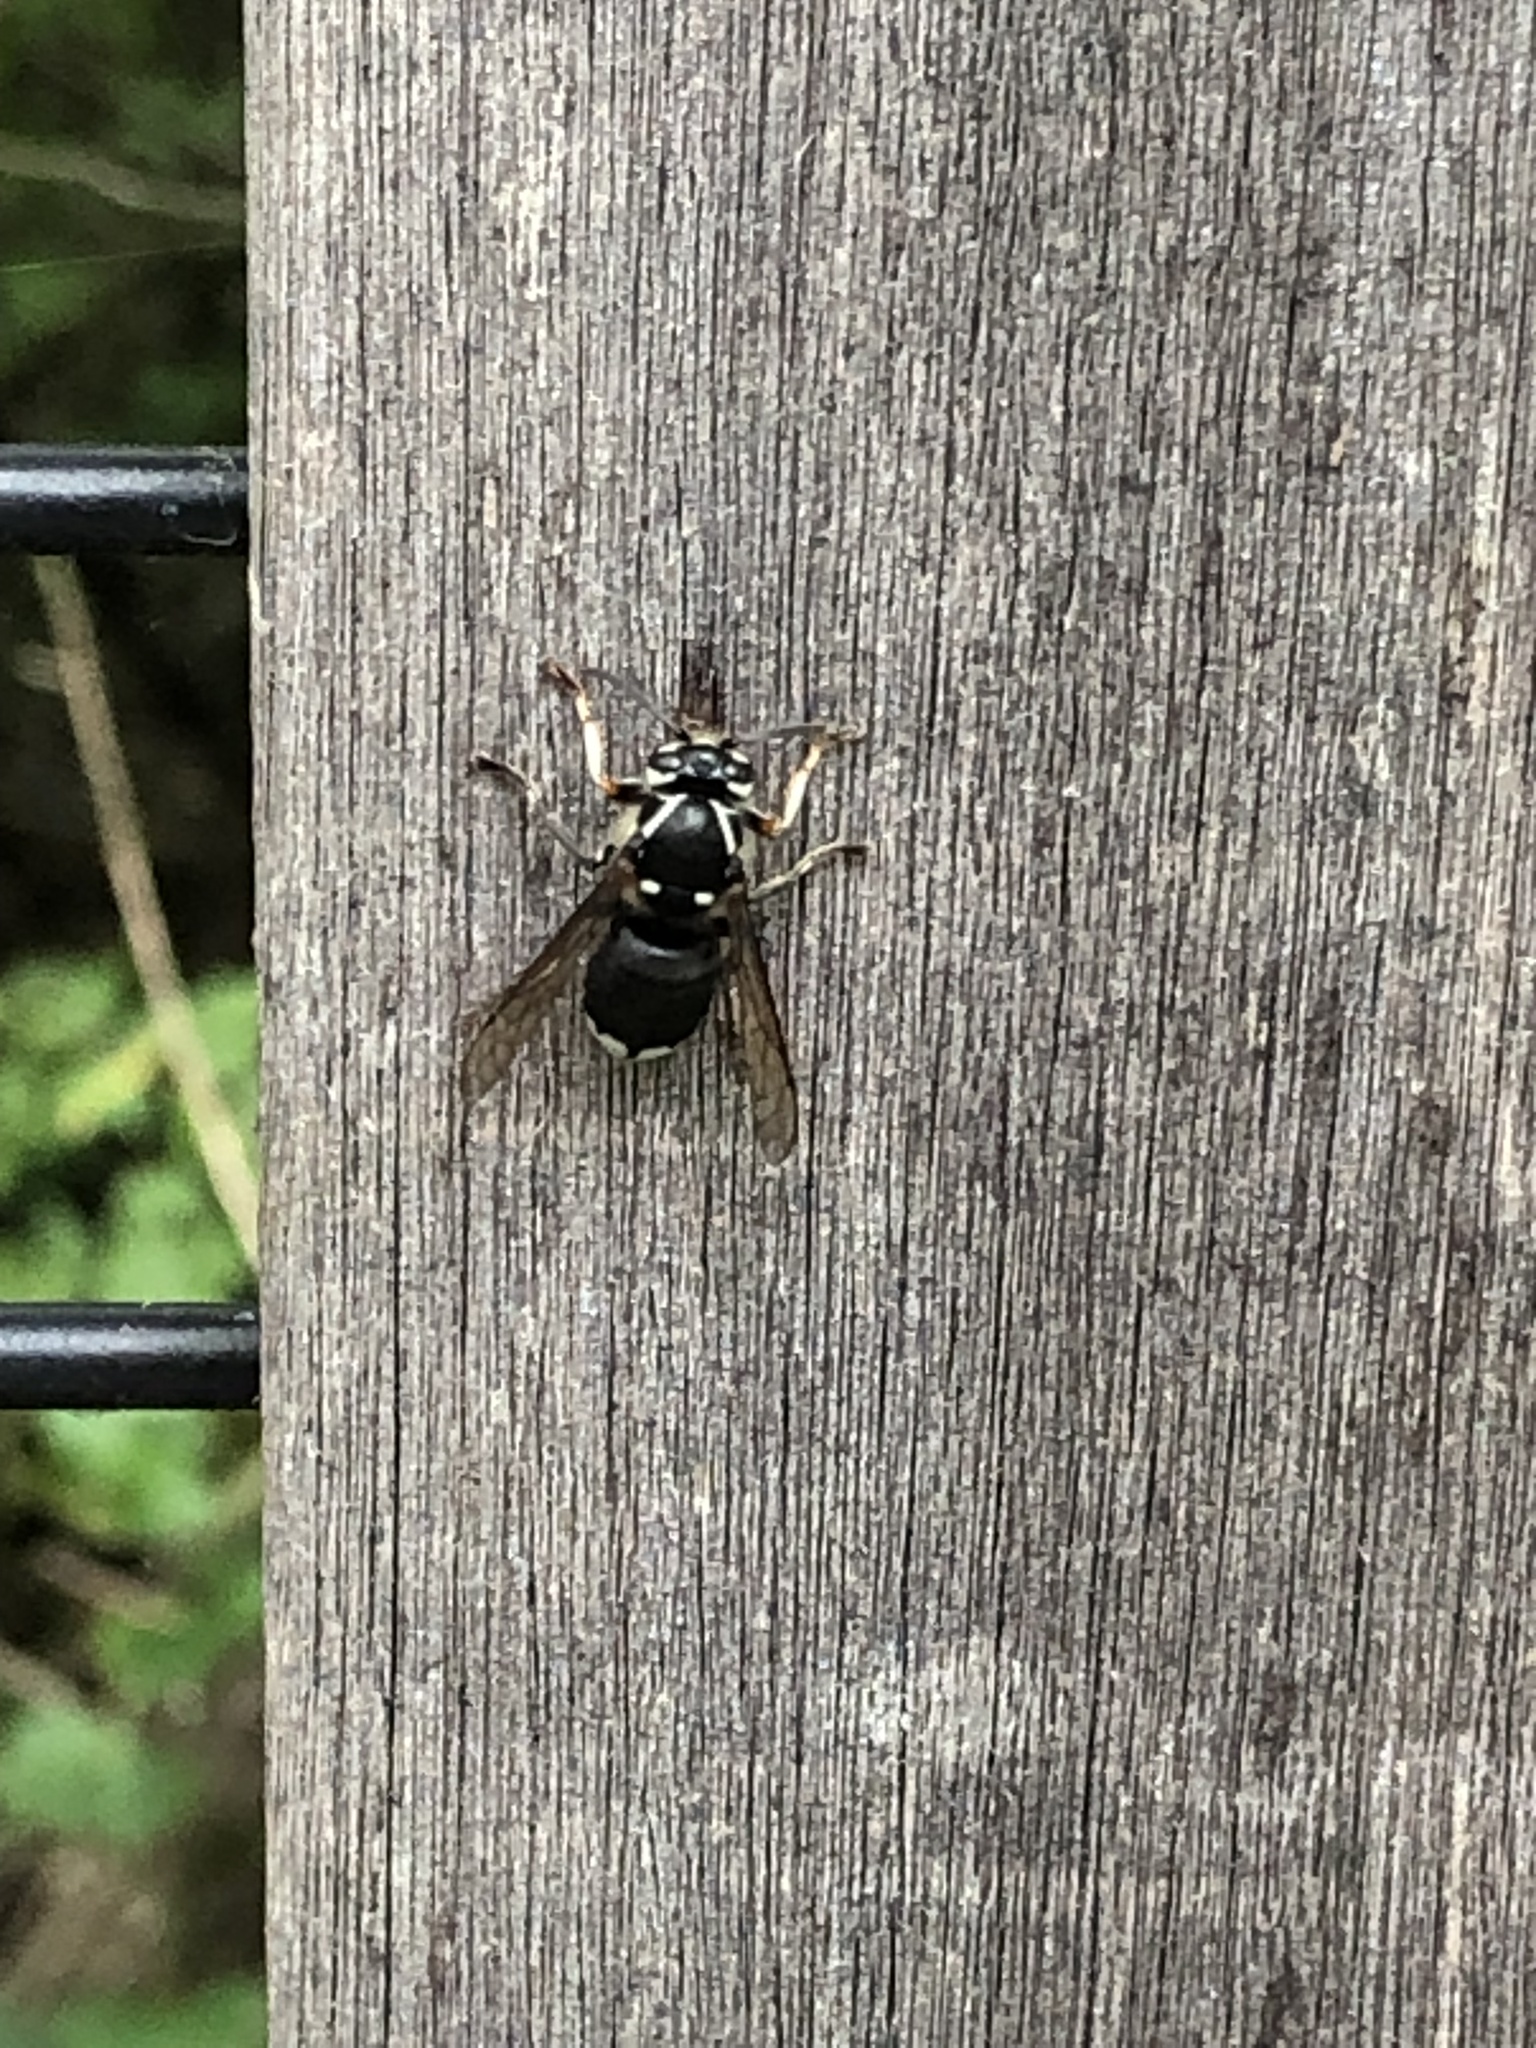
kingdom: Animalia
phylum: Arthropoda
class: Insecta
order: Hymenoptera
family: Vespidae
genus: Dolichovespula
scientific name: Dolichovespula maculata
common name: Bald-faced hornet
